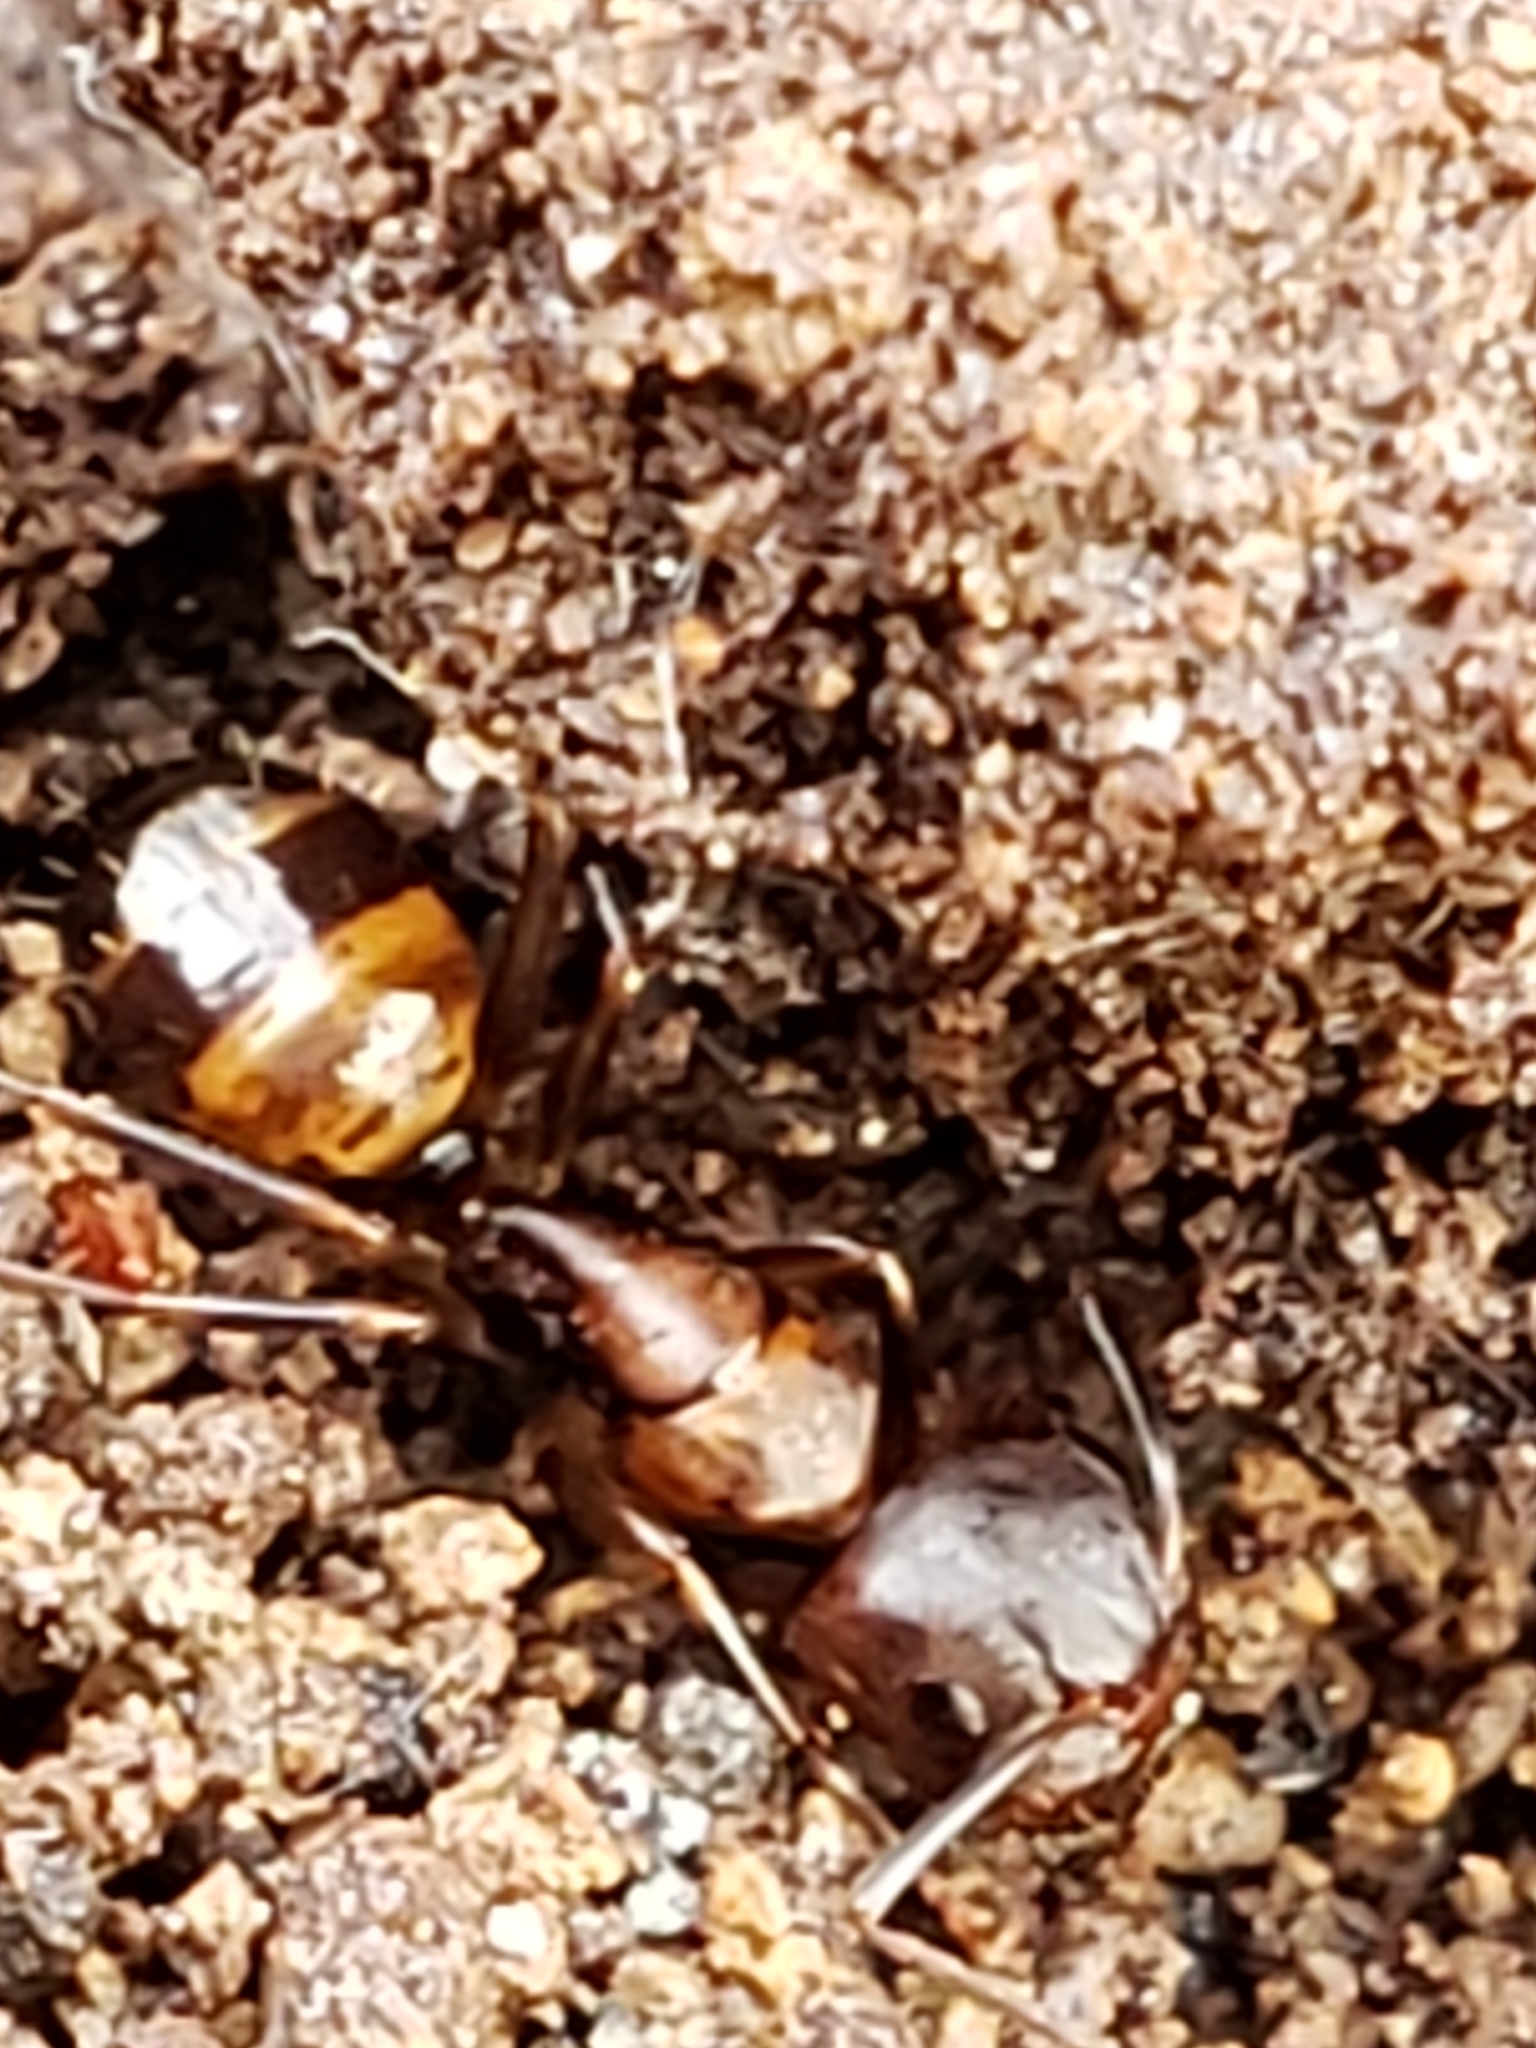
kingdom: Animalia
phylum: Arthropoda
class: Insecta
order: Hymenoptera
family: Formicidae
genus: Camponotus
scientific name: Camponotus subbarbatus
